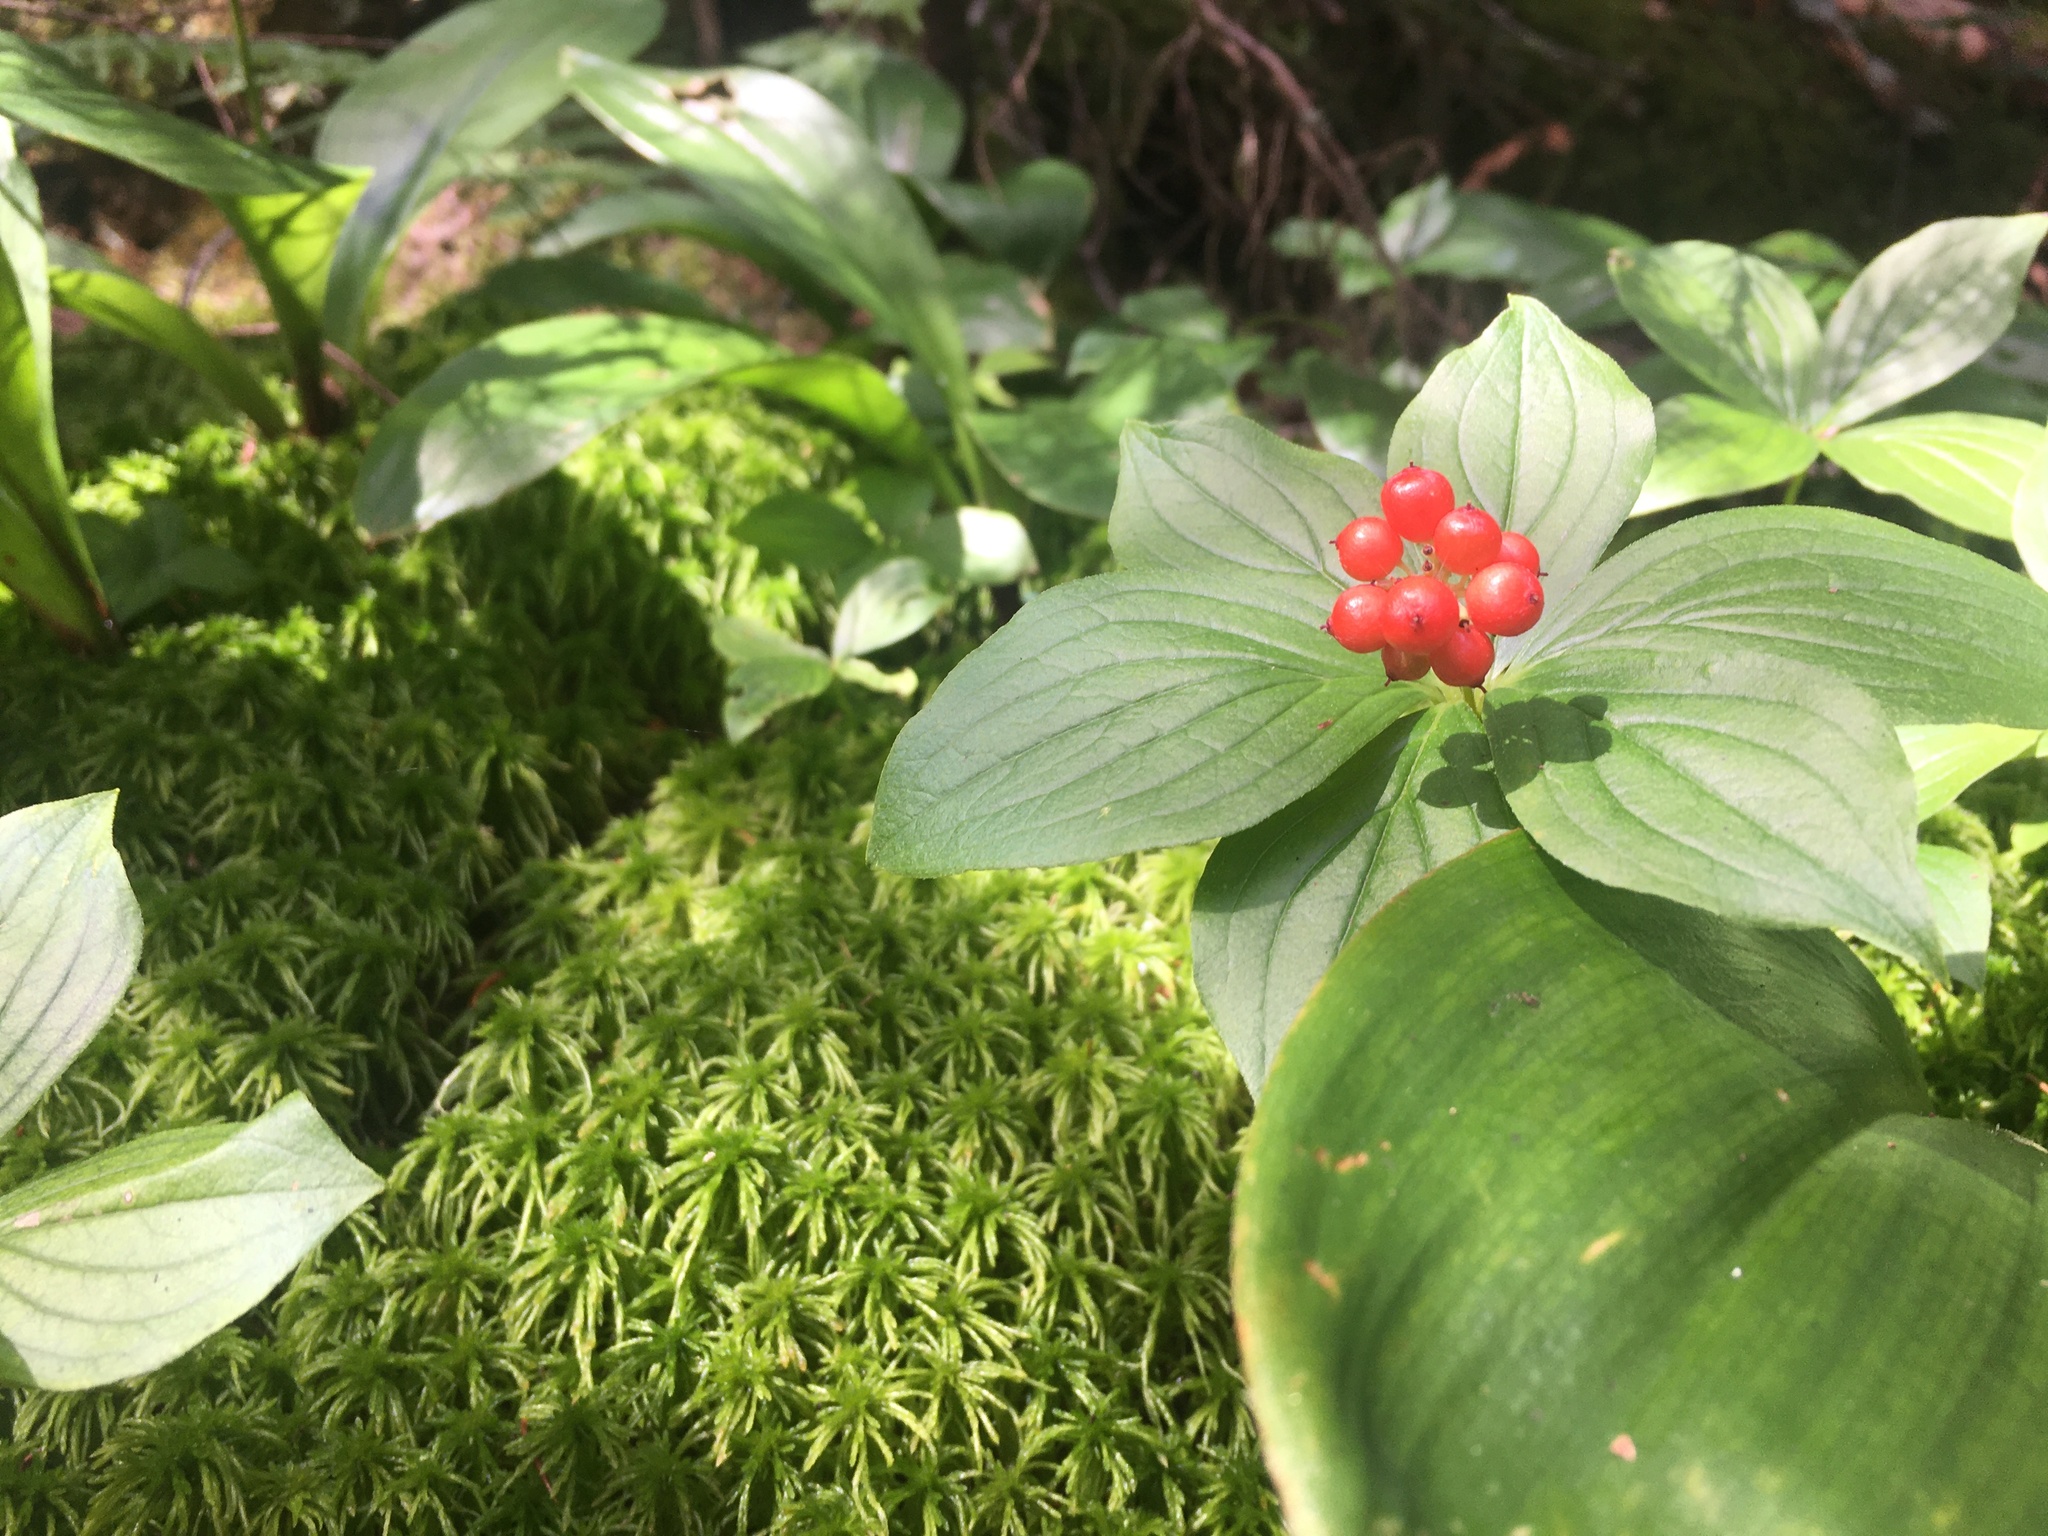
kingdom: Plantae
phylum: Tracheophyta
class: Magnoliopsida
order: Cornales
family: Cornaceae
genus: Cornus
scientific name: Cornus canadensis
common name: Creeping dogwood
